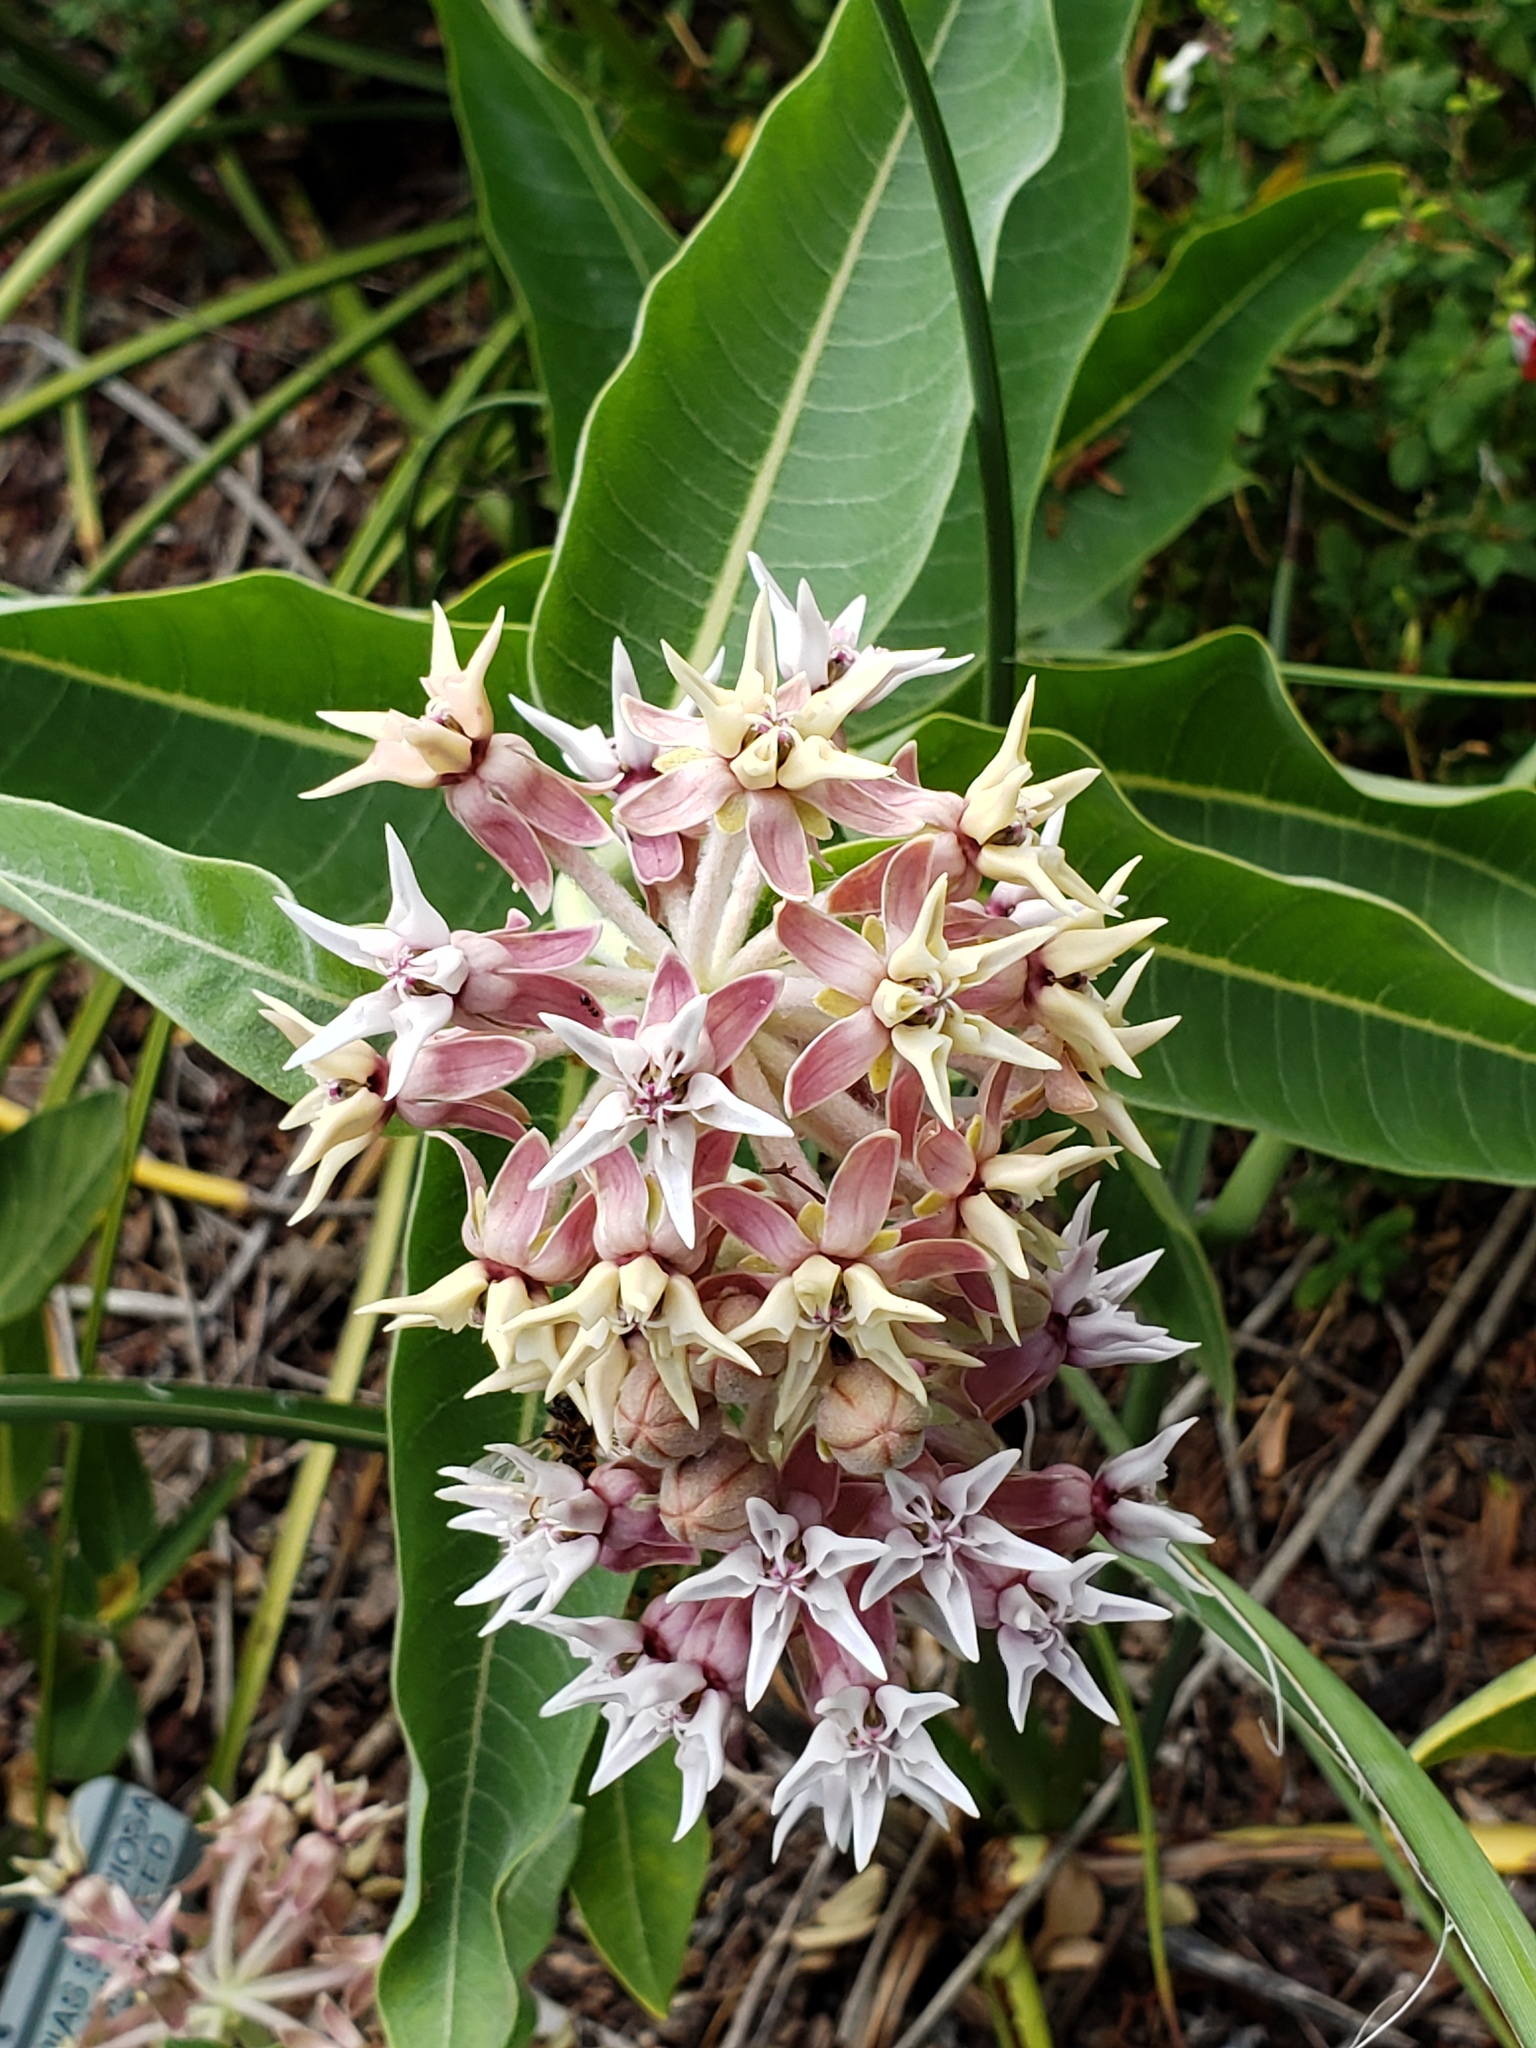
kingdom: Plantae
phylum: Tracheophyta
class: Magnoliopsida
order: Gentianales
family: Apocynaceae
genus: Asclepias
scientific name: Asclepias speciosa
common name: Showy milkweed
